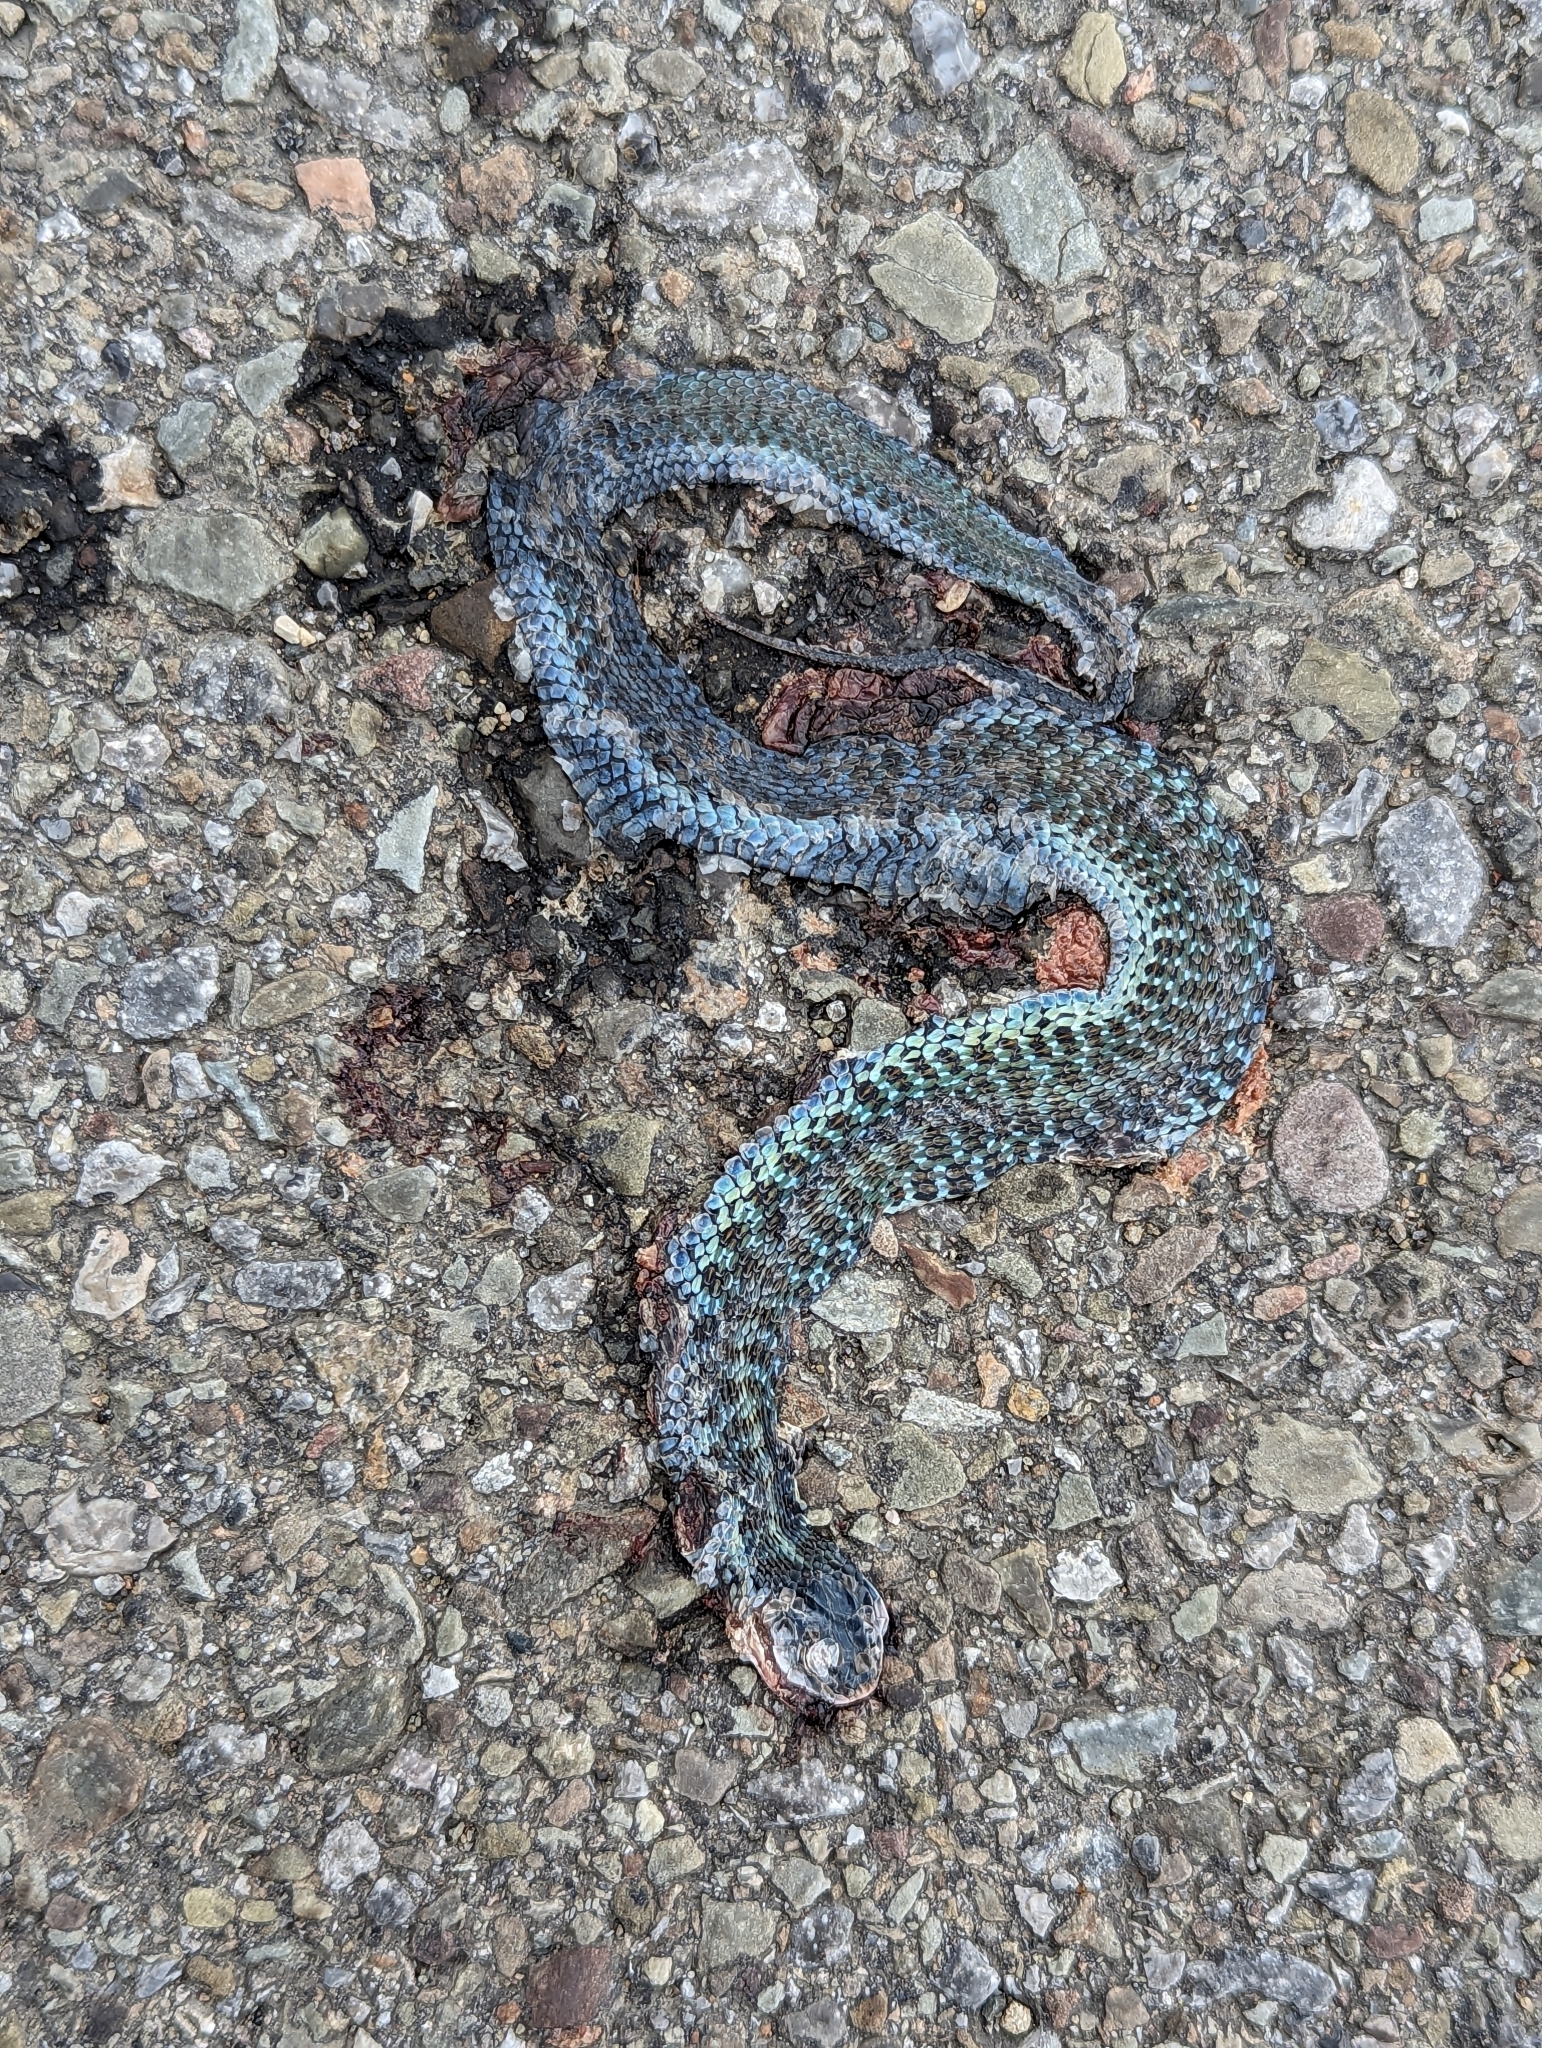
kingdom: Animalia
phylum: Chordata
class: Squamata
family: Colubridae
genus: Thamnophis
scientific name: Thamnophis sirtalis
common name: Common garter snake
